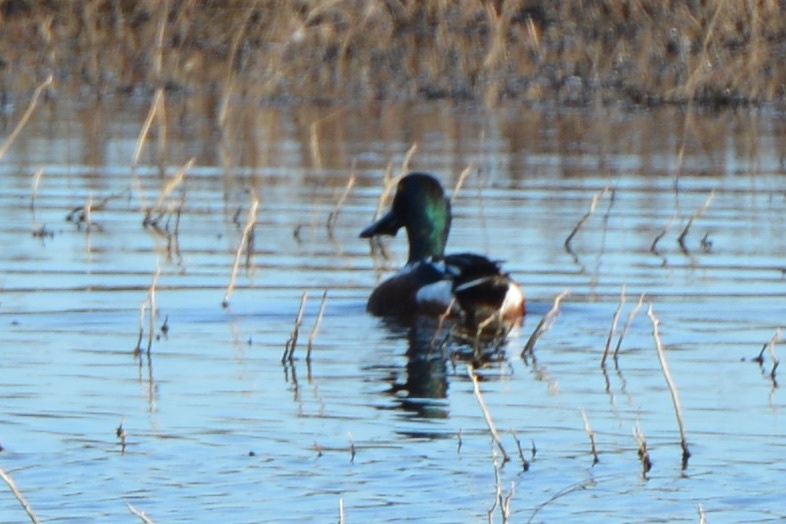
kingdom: Animalia
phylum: Chordata
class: Aves
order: Anseriformes
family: Anatidae
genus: Spatula
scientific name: Spatula clypeata
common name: Northern shoveler
